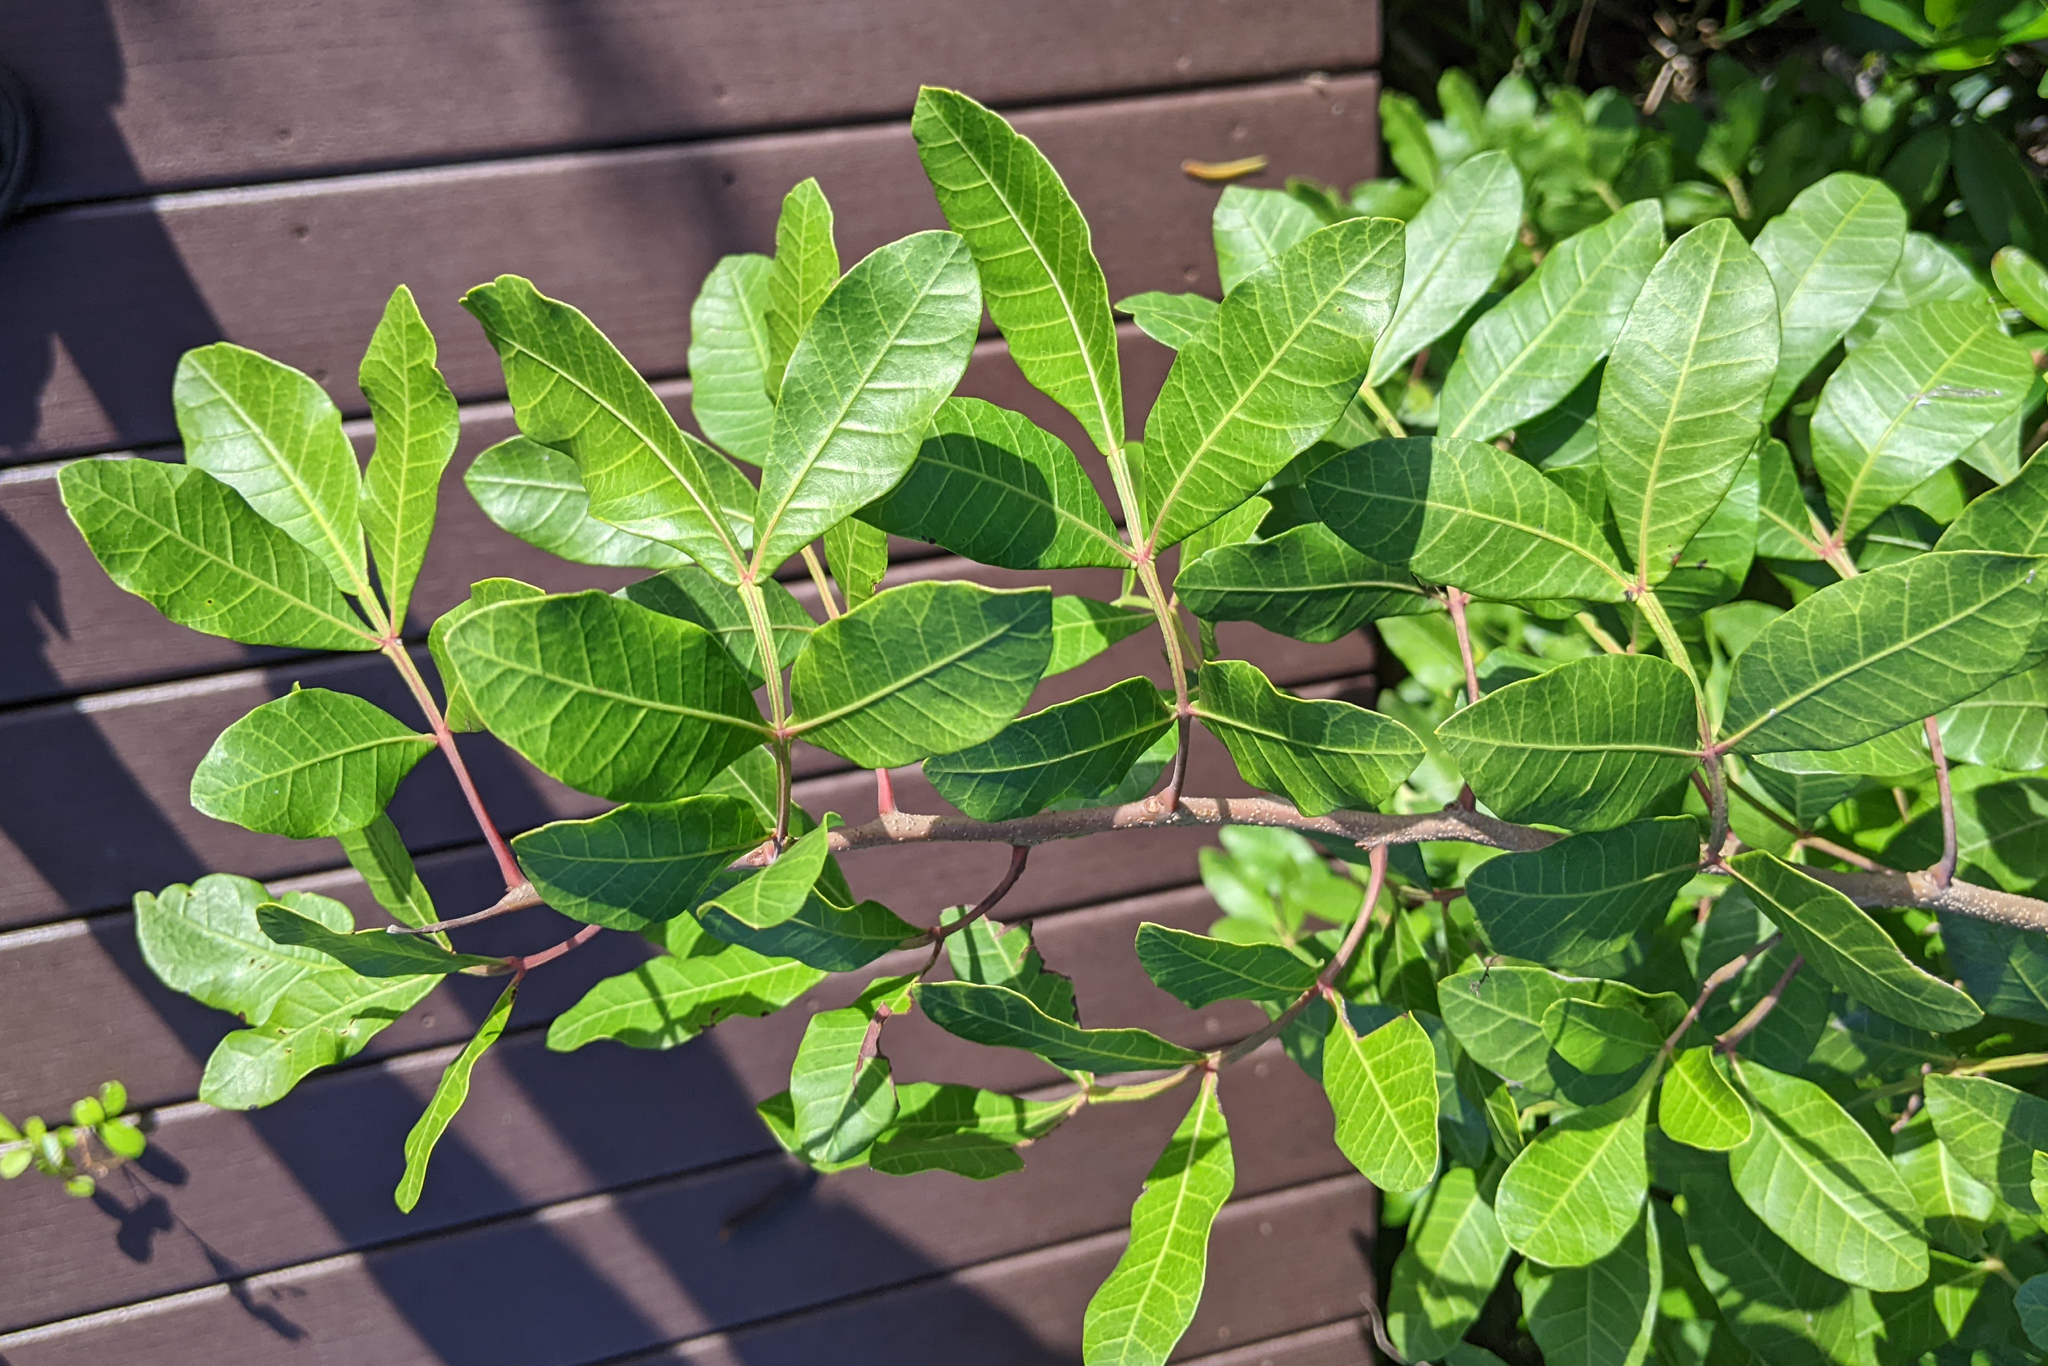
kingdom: Plantae
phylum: Tracheophyta
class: Magnoliopsida
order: Sapindales
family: Anacardiaceae
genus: Schinus
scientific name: Schinus terebinthifolia
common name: Brazilian peppertree
